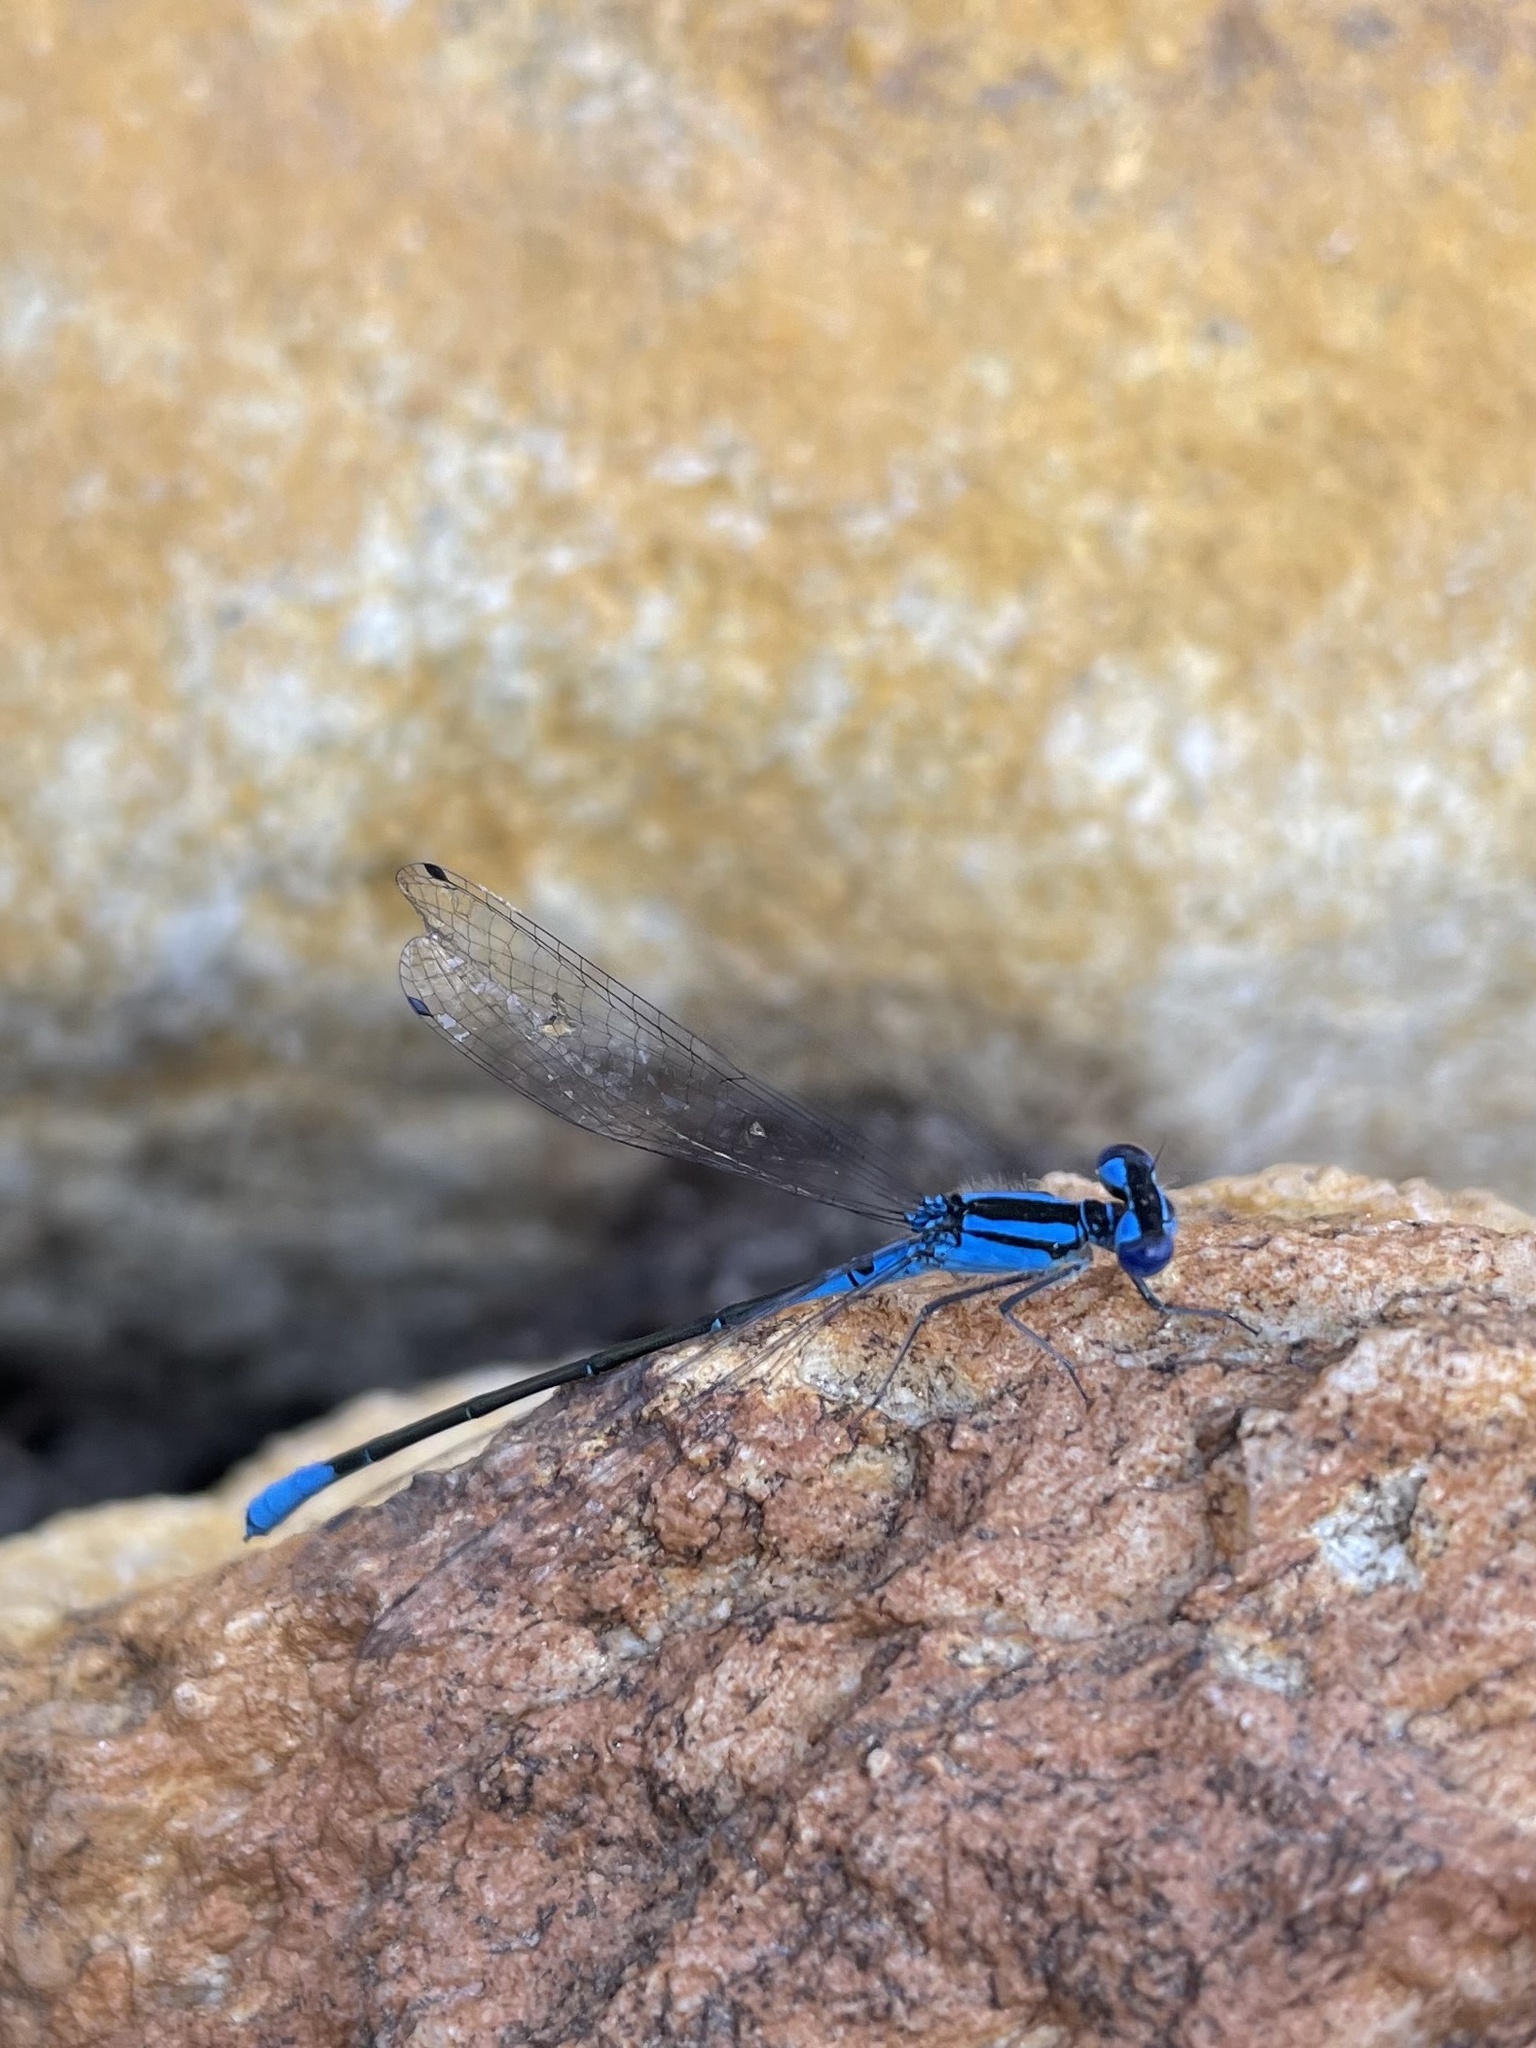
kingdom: Animalia
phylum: Arthropoda
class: Insecta
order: Odonata
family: Coenagrionidae
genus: Enallagma
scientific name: Enallagma aspersum
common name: Azure bluet
